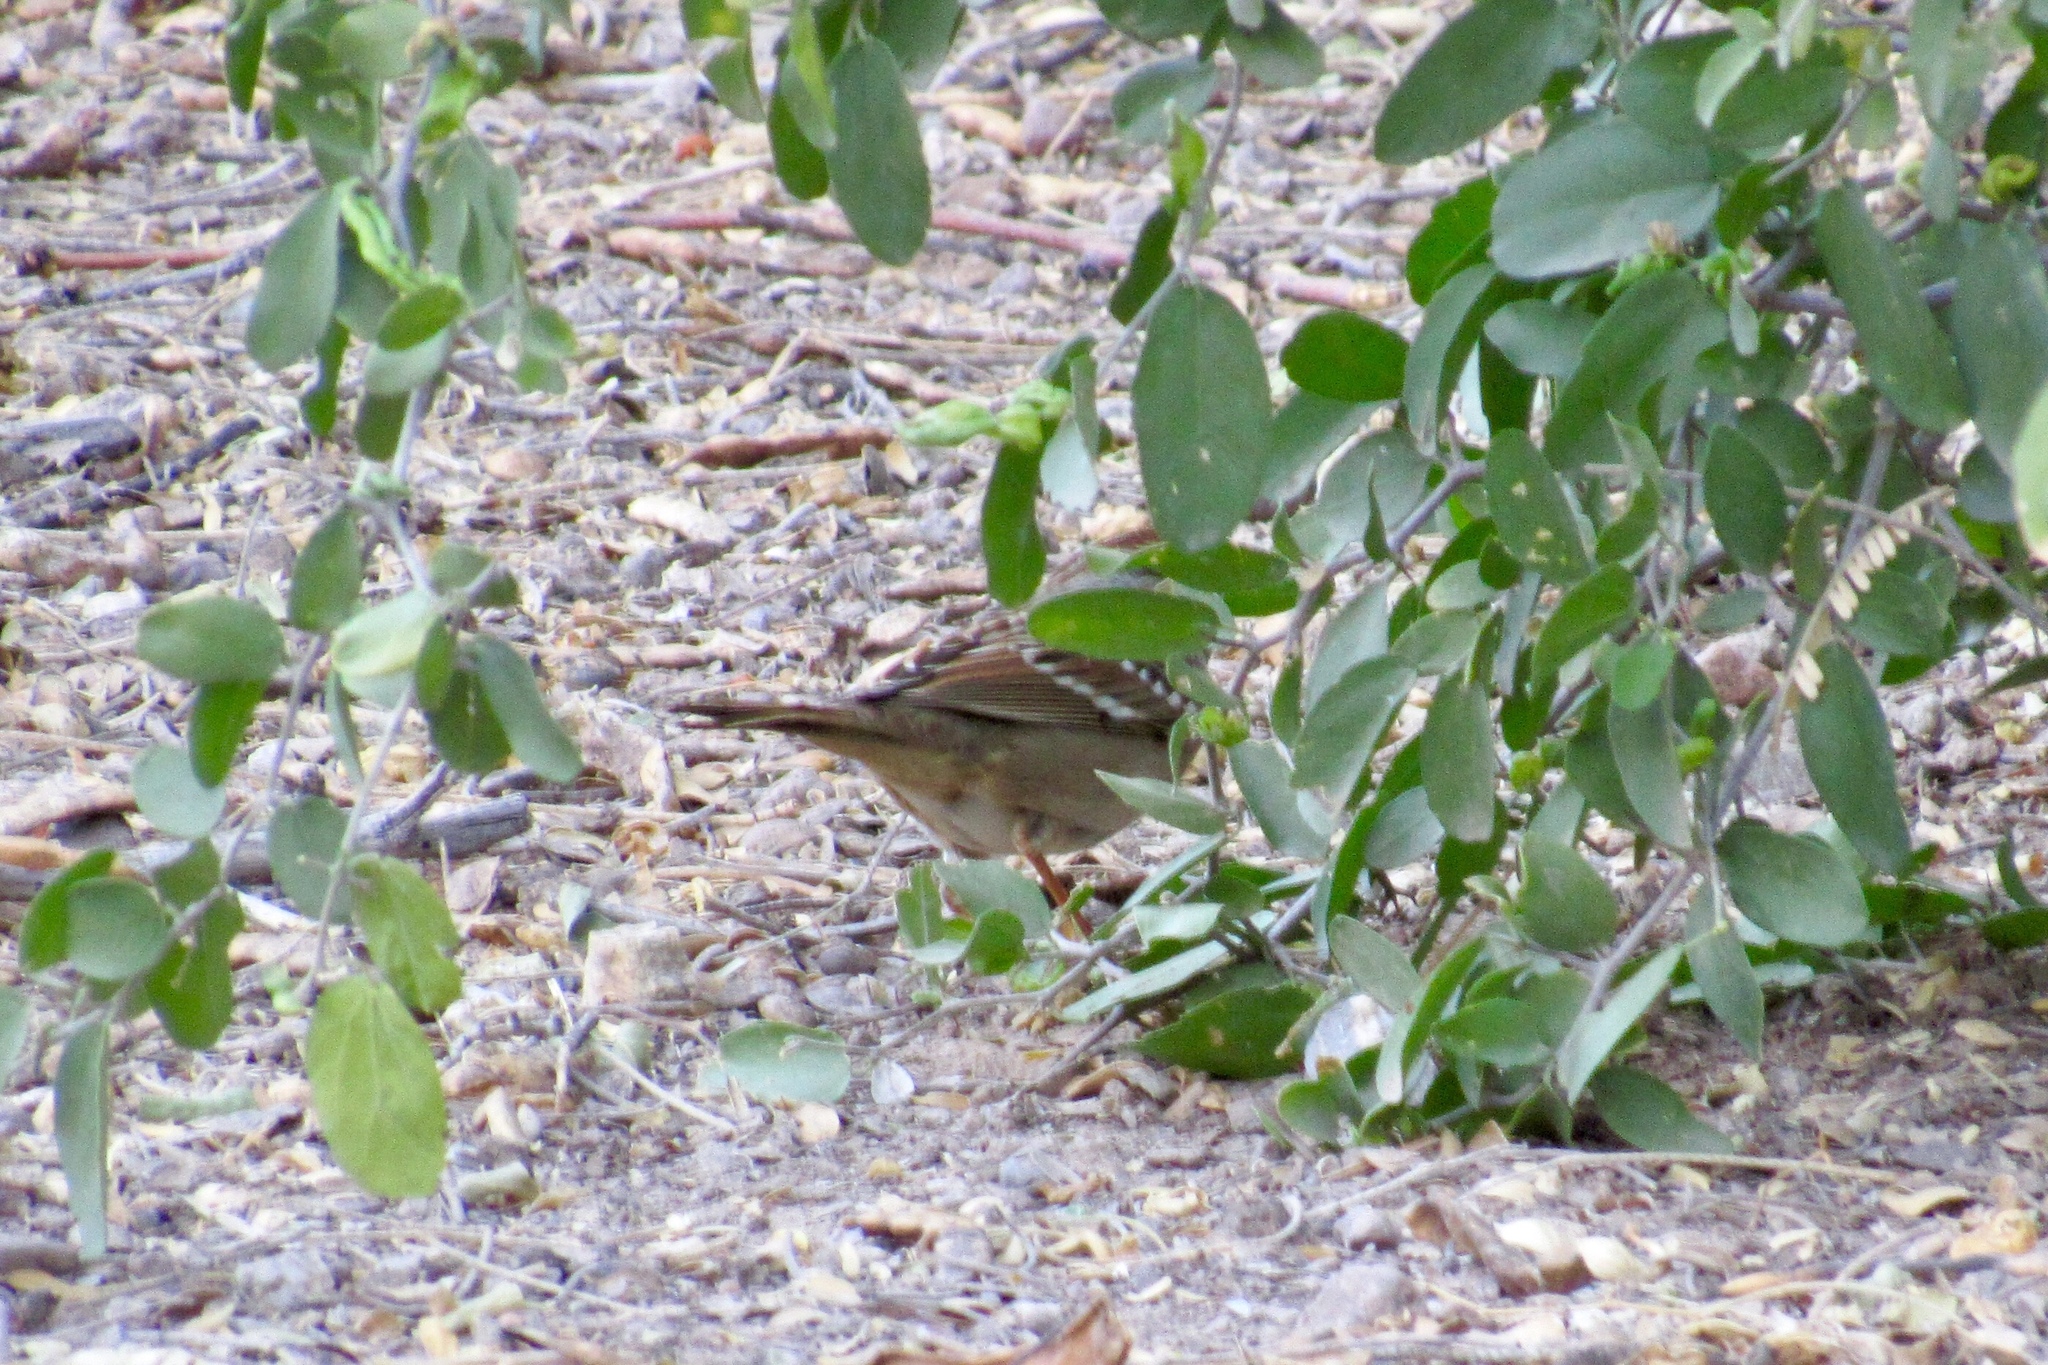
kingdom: Animalia
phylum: Chordata
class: Aves
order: Passeriformes
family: Passerellidae
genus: Zonotrichia
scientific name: Zonotrichia leucophrys
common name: White-crowned sparrow
